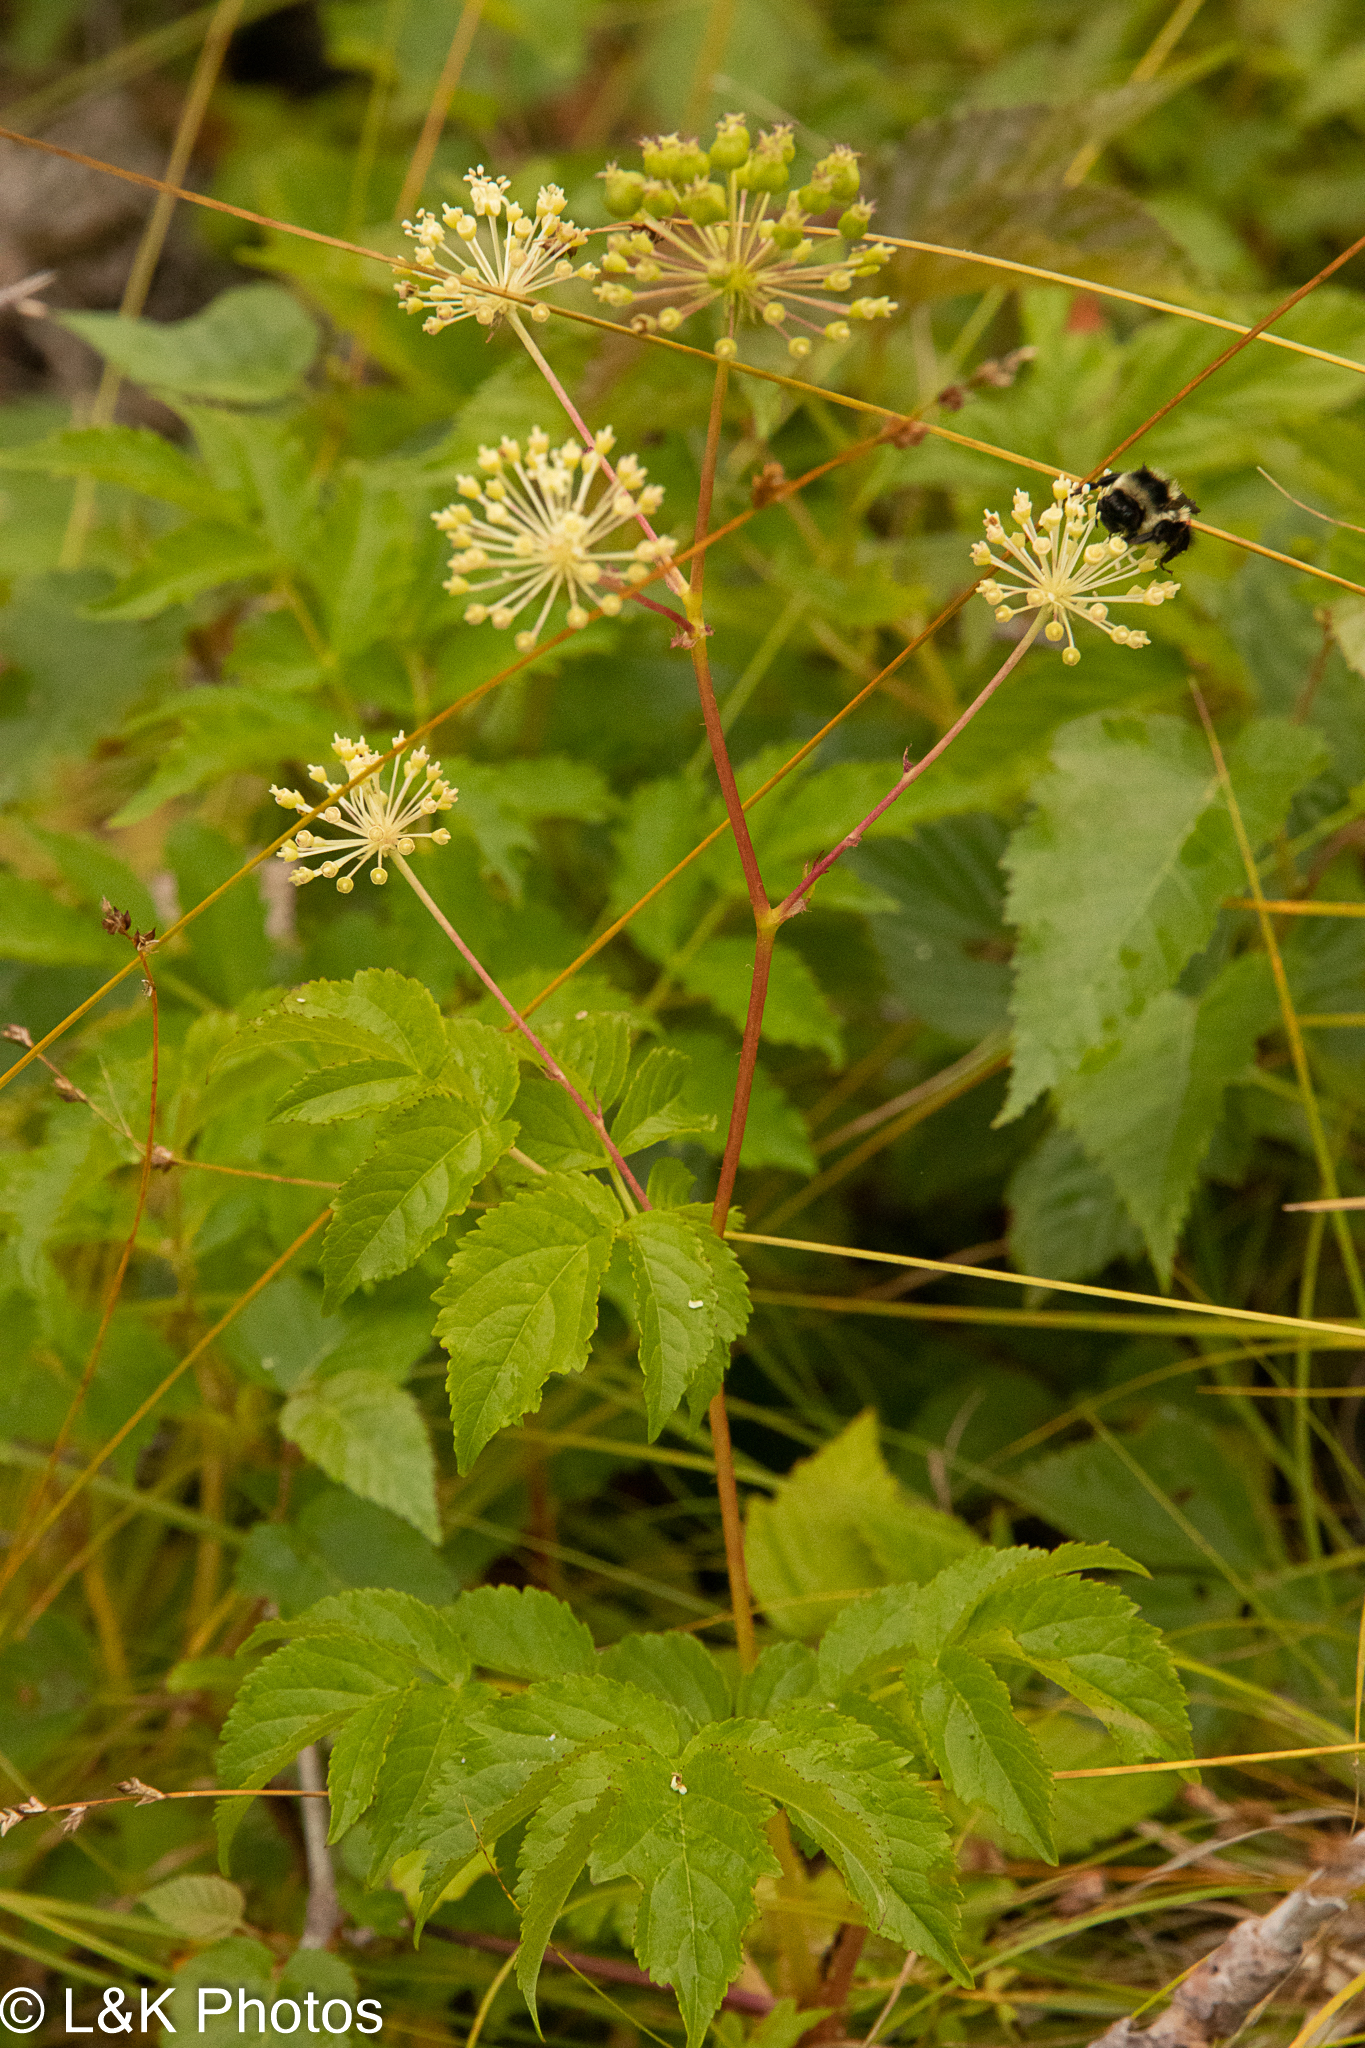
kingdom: Plantae
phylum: Tracheophyta
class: Magnoliopsida
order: Apiales
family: Araliaceae
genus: Aralia
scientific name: Aralia hispida
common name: Bristly sarsaparilla
